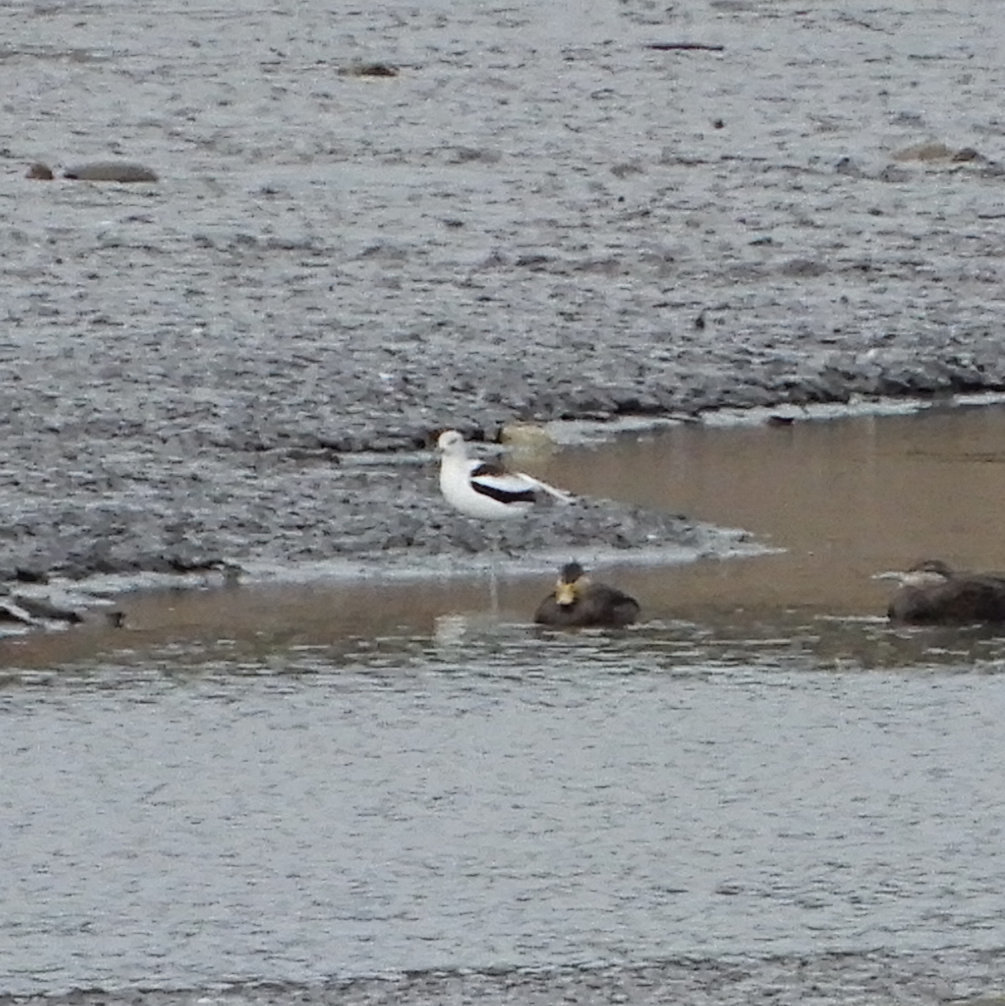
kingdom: Animalia
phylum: Chordata
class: Aves
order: Charadriiformes
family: Recurvirostridae
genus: Recurvirostra
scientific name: Recurvirostra americana
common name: American avocet
